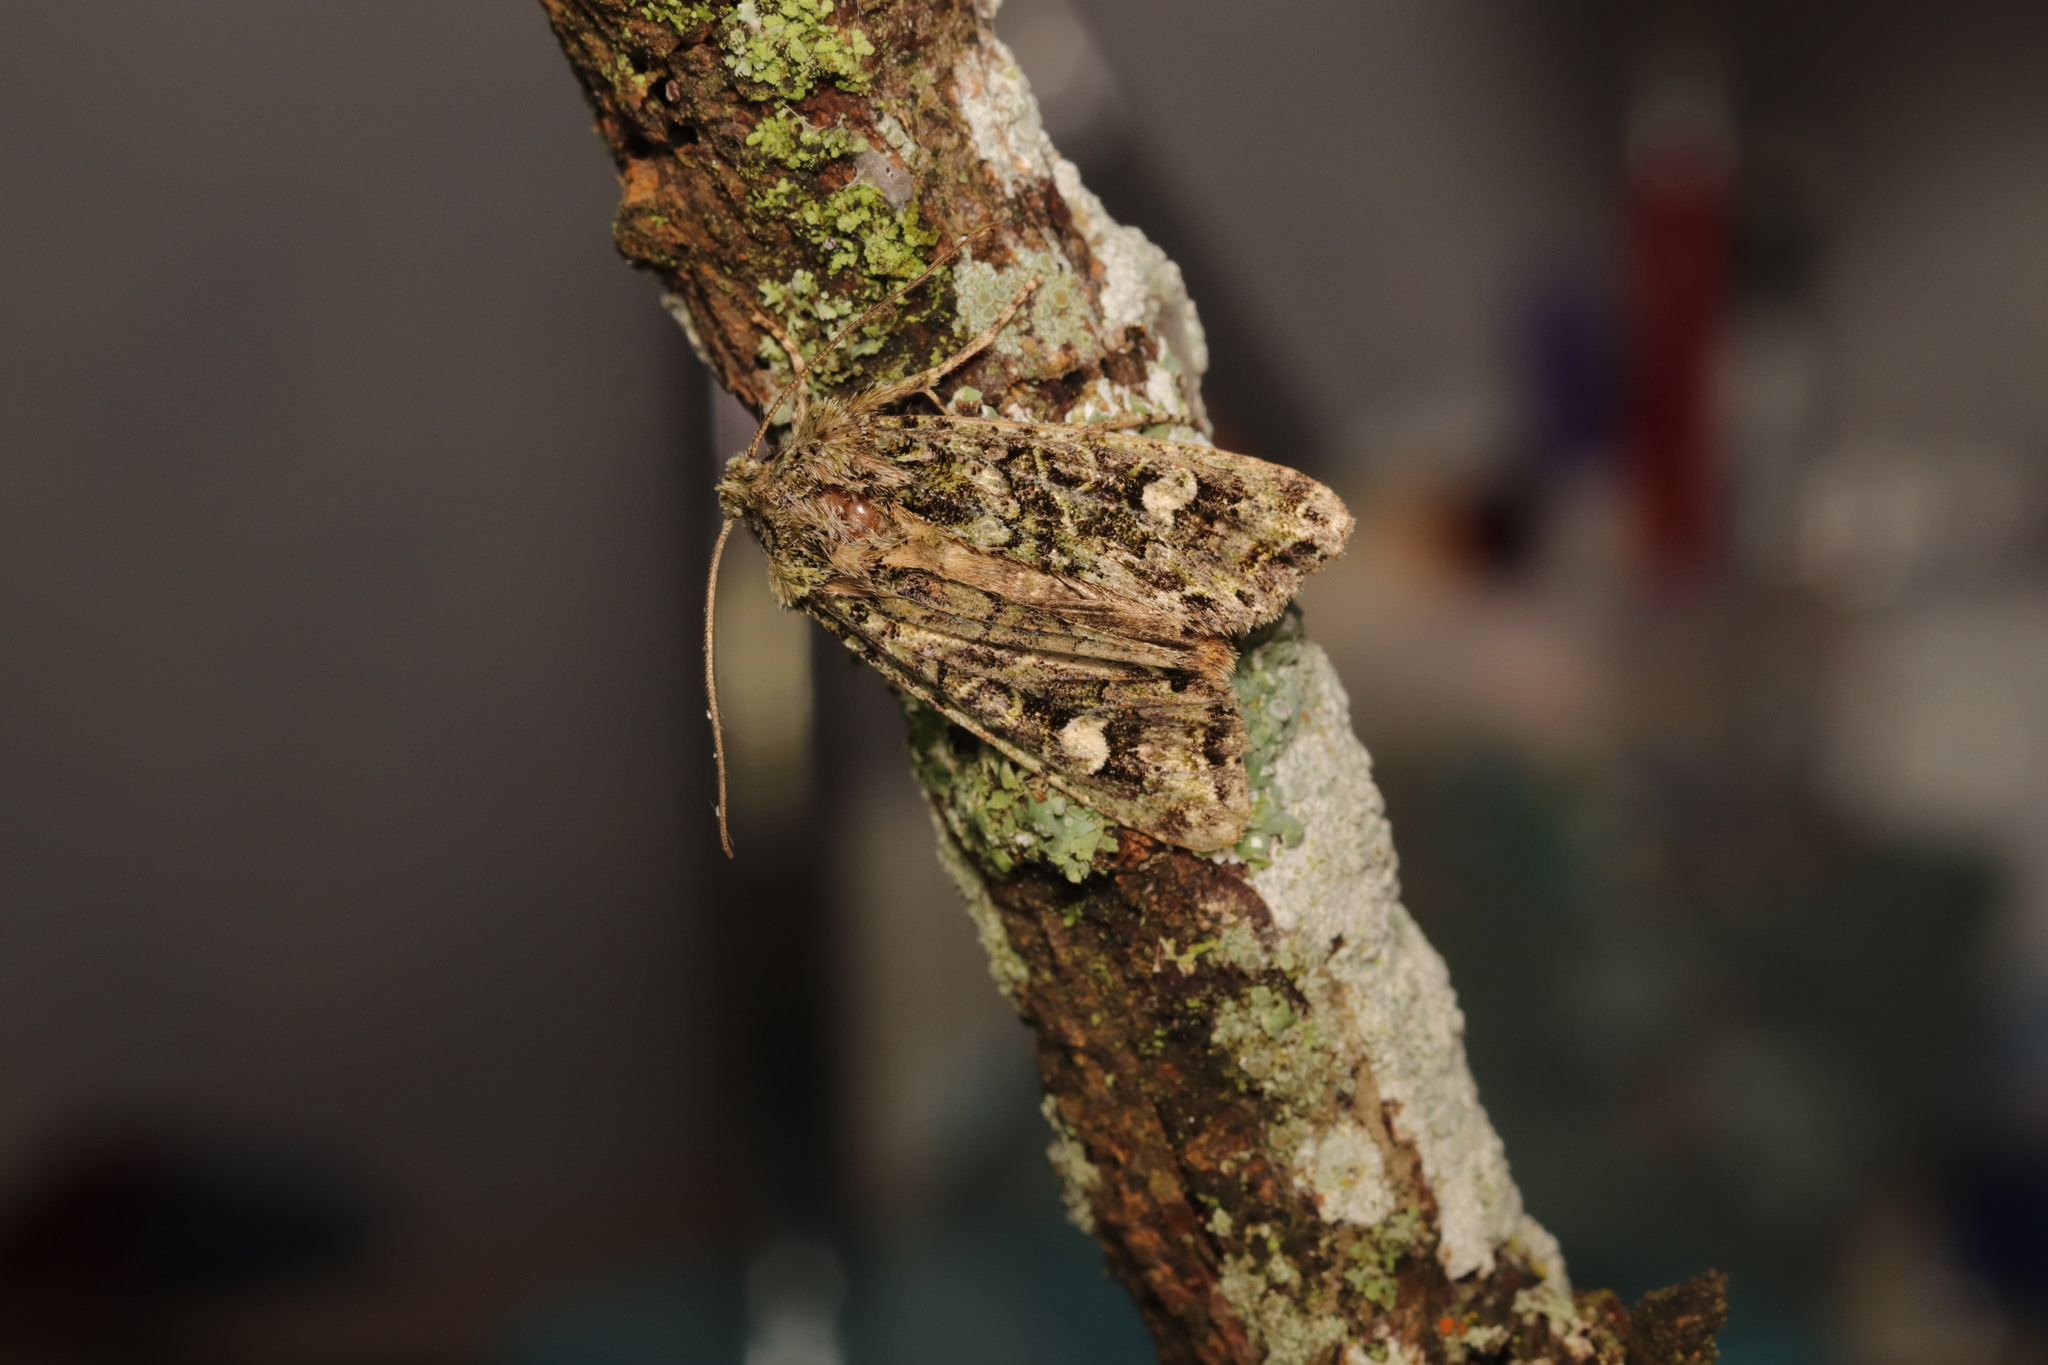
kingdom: Animalia
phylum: Arthropoda
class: Insecta
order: Lepidoptera
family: Noctuidae
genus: Ichneutica
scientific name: Ichneutica
